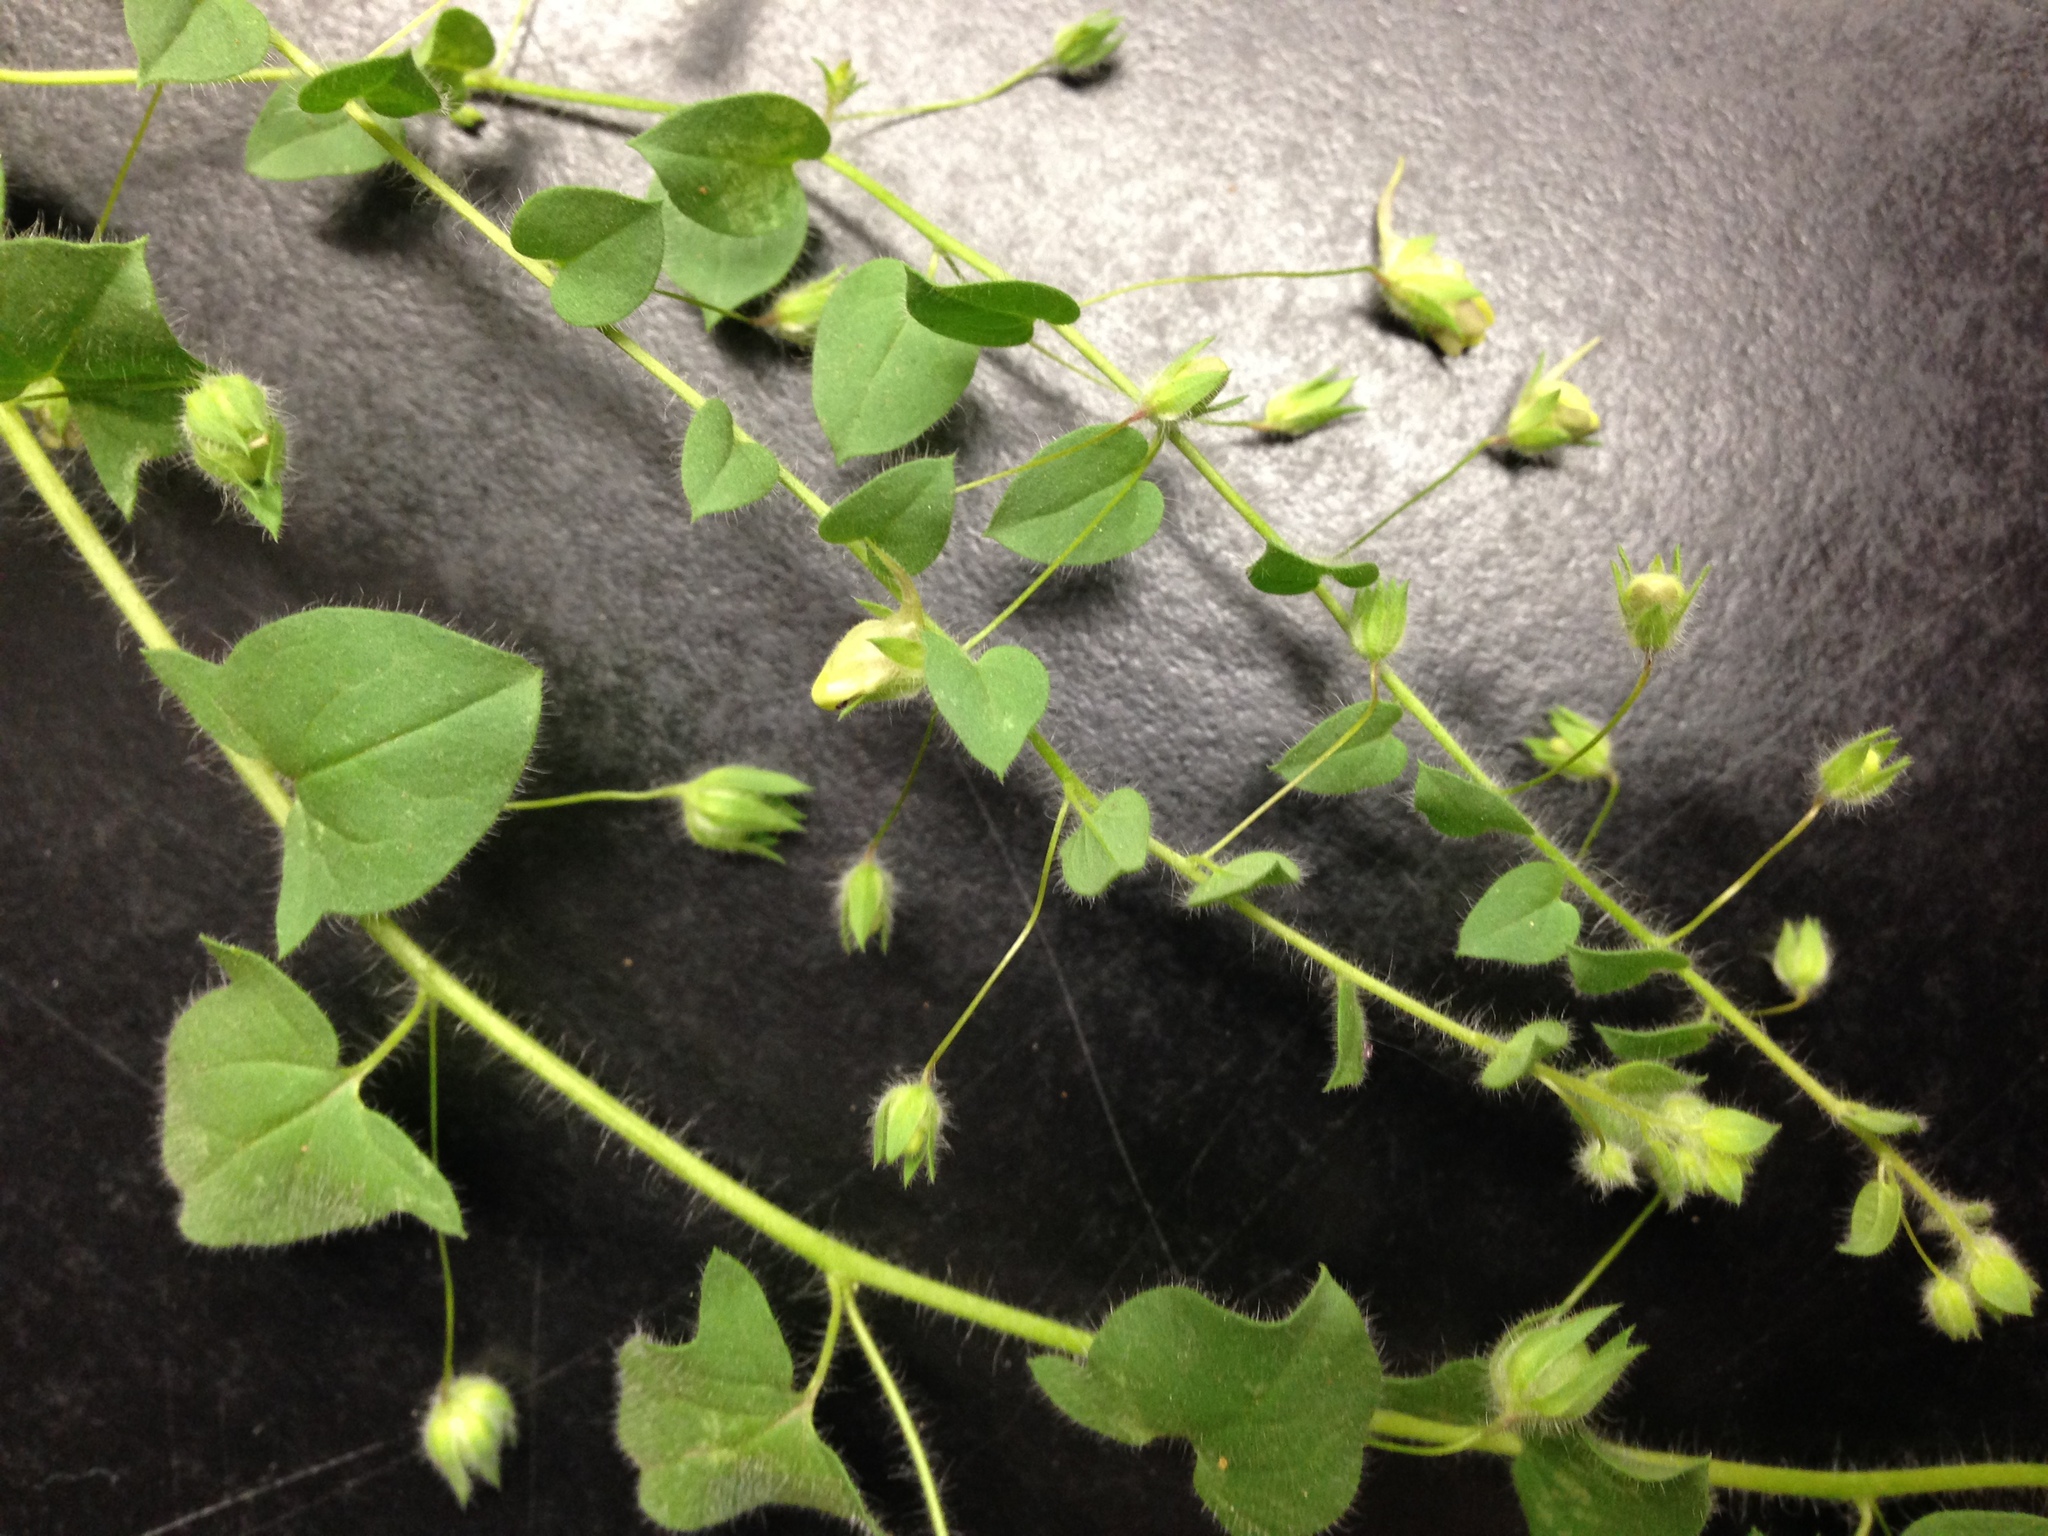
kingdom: Plantae
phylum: Tracheophyta
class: Magnoliopsida
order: Lamiales
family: Plantaginaceae
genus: Kickxia
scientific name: Kickxia elatine
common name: Sharp-leaved fluellen
